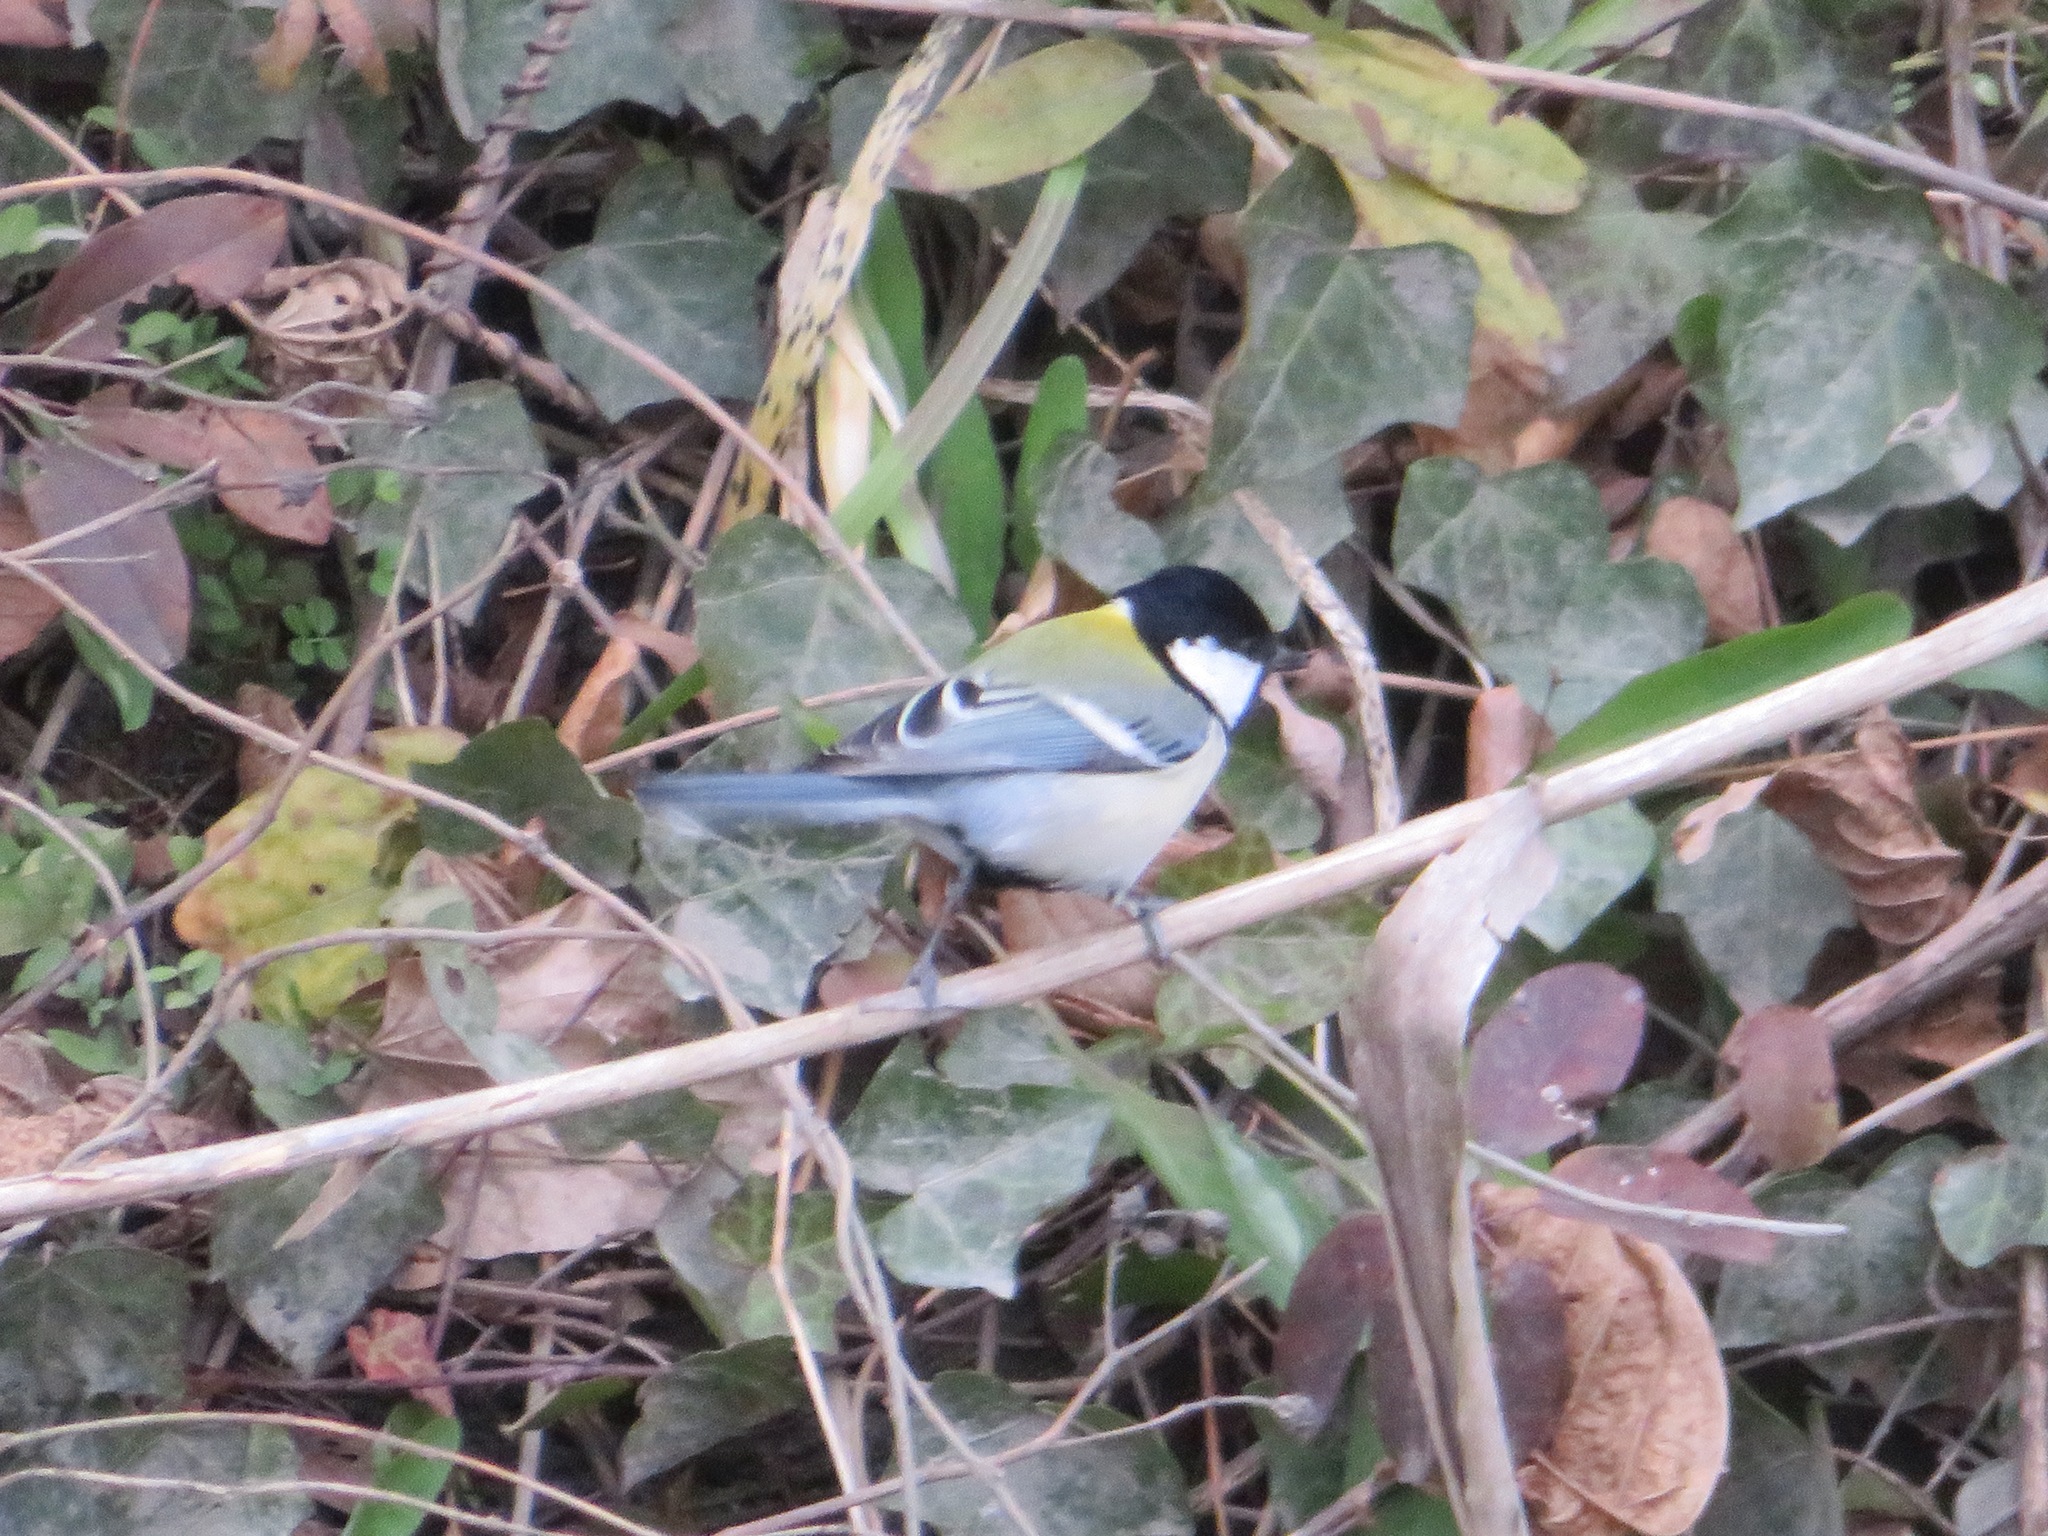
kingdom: Animalia
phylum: Chordata
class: Aves
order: Passeriformes
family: Paridae
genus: Parus
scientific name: Parus minor
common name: Japanese tit
